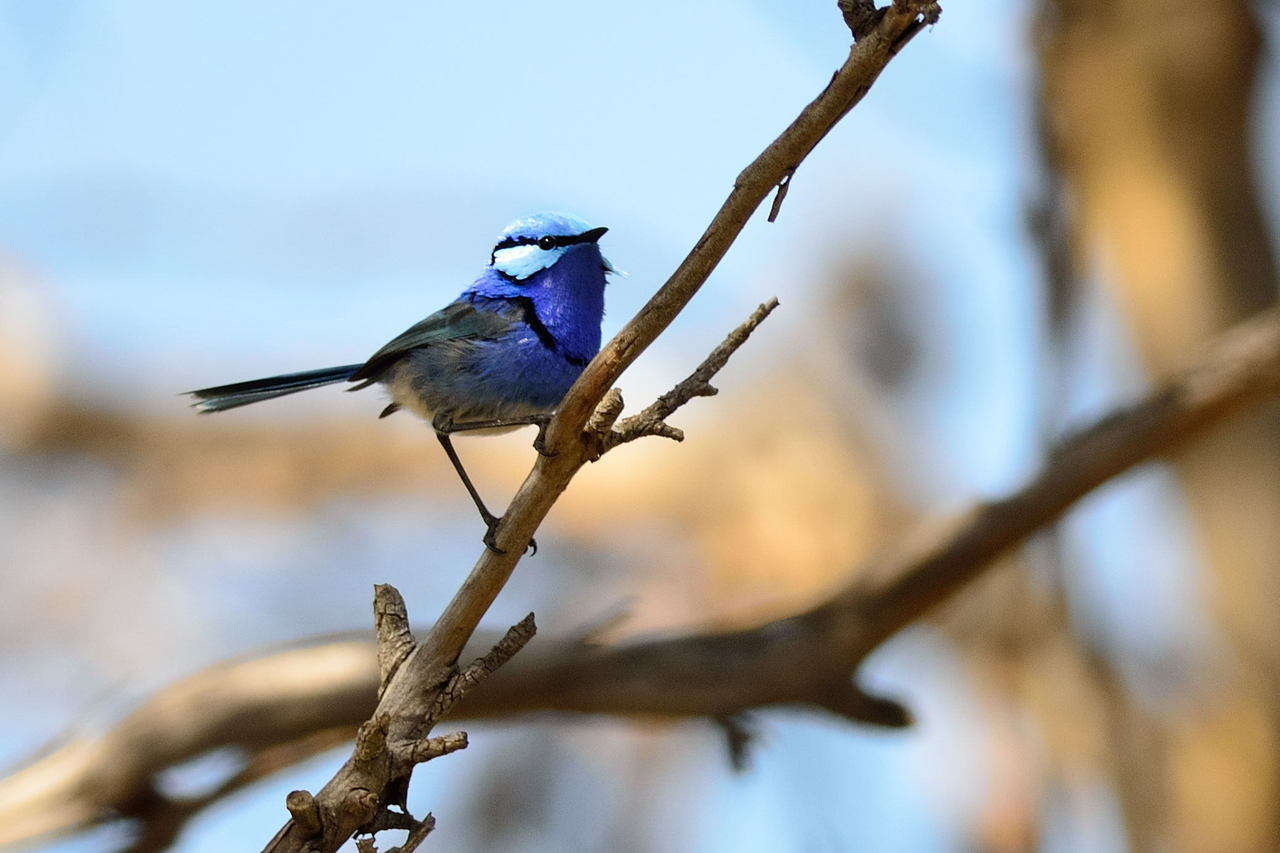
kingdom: Animalia
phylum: Chordata
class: Aves
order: Passeriformes
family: Maluridae
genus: Malurus
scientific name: Malurus splendens
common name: Splendid fairywren
